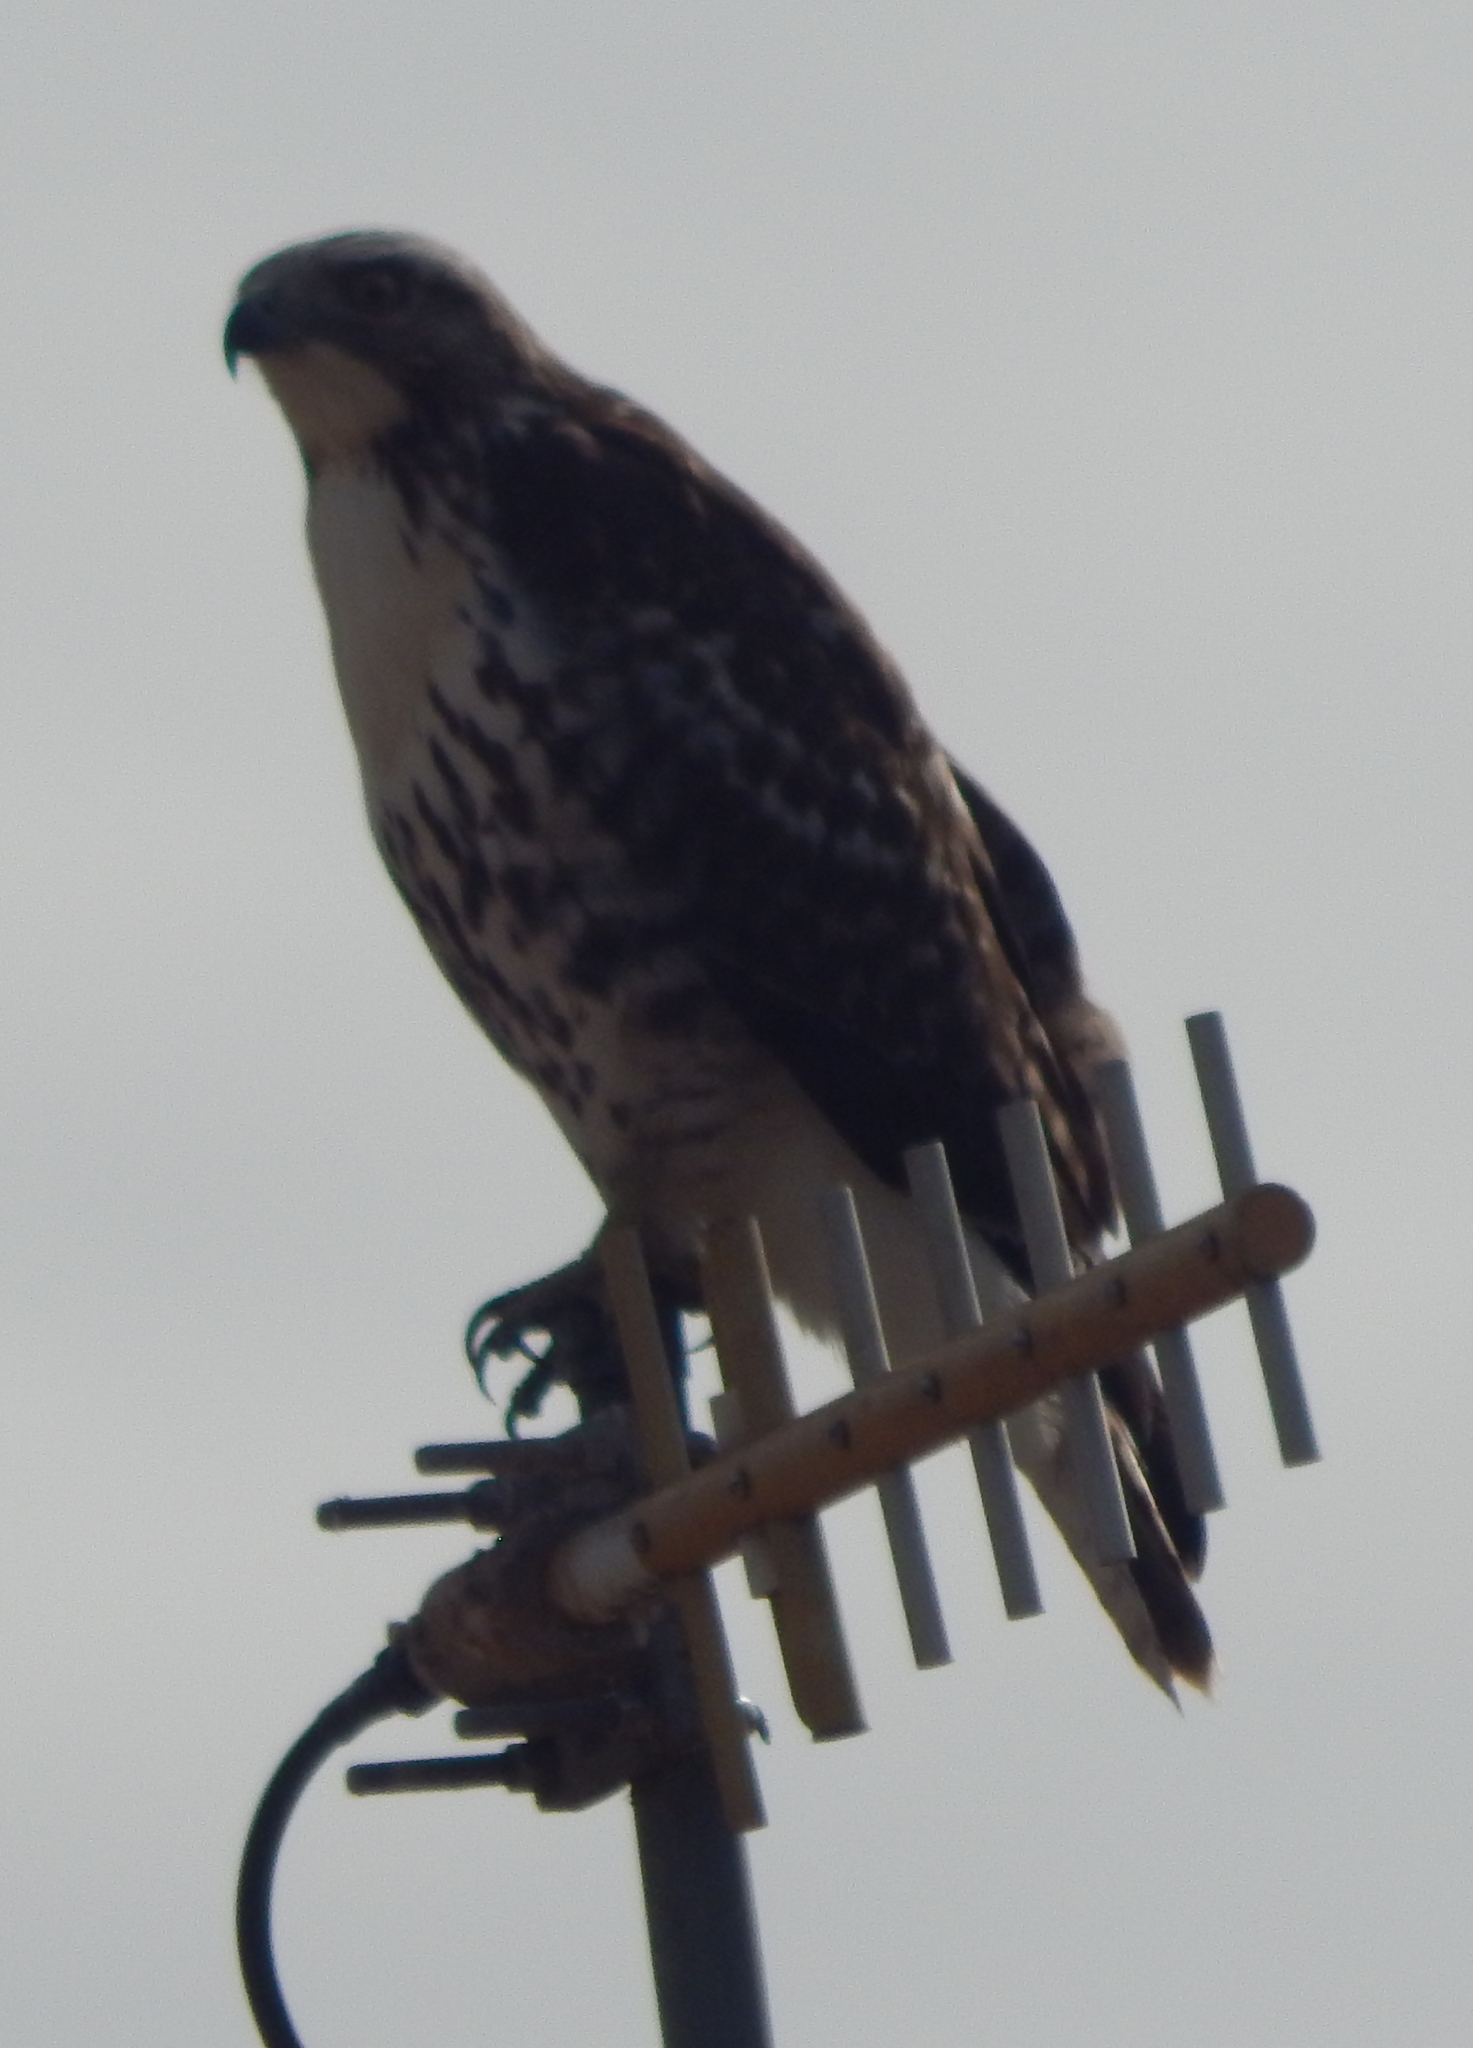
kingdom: Animalia
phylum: Chordata
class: Aves
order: Accipitriformes
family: Accipitridae
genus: Buteo
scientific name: Buteo jamaicensis
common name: Red-tailed hawk
